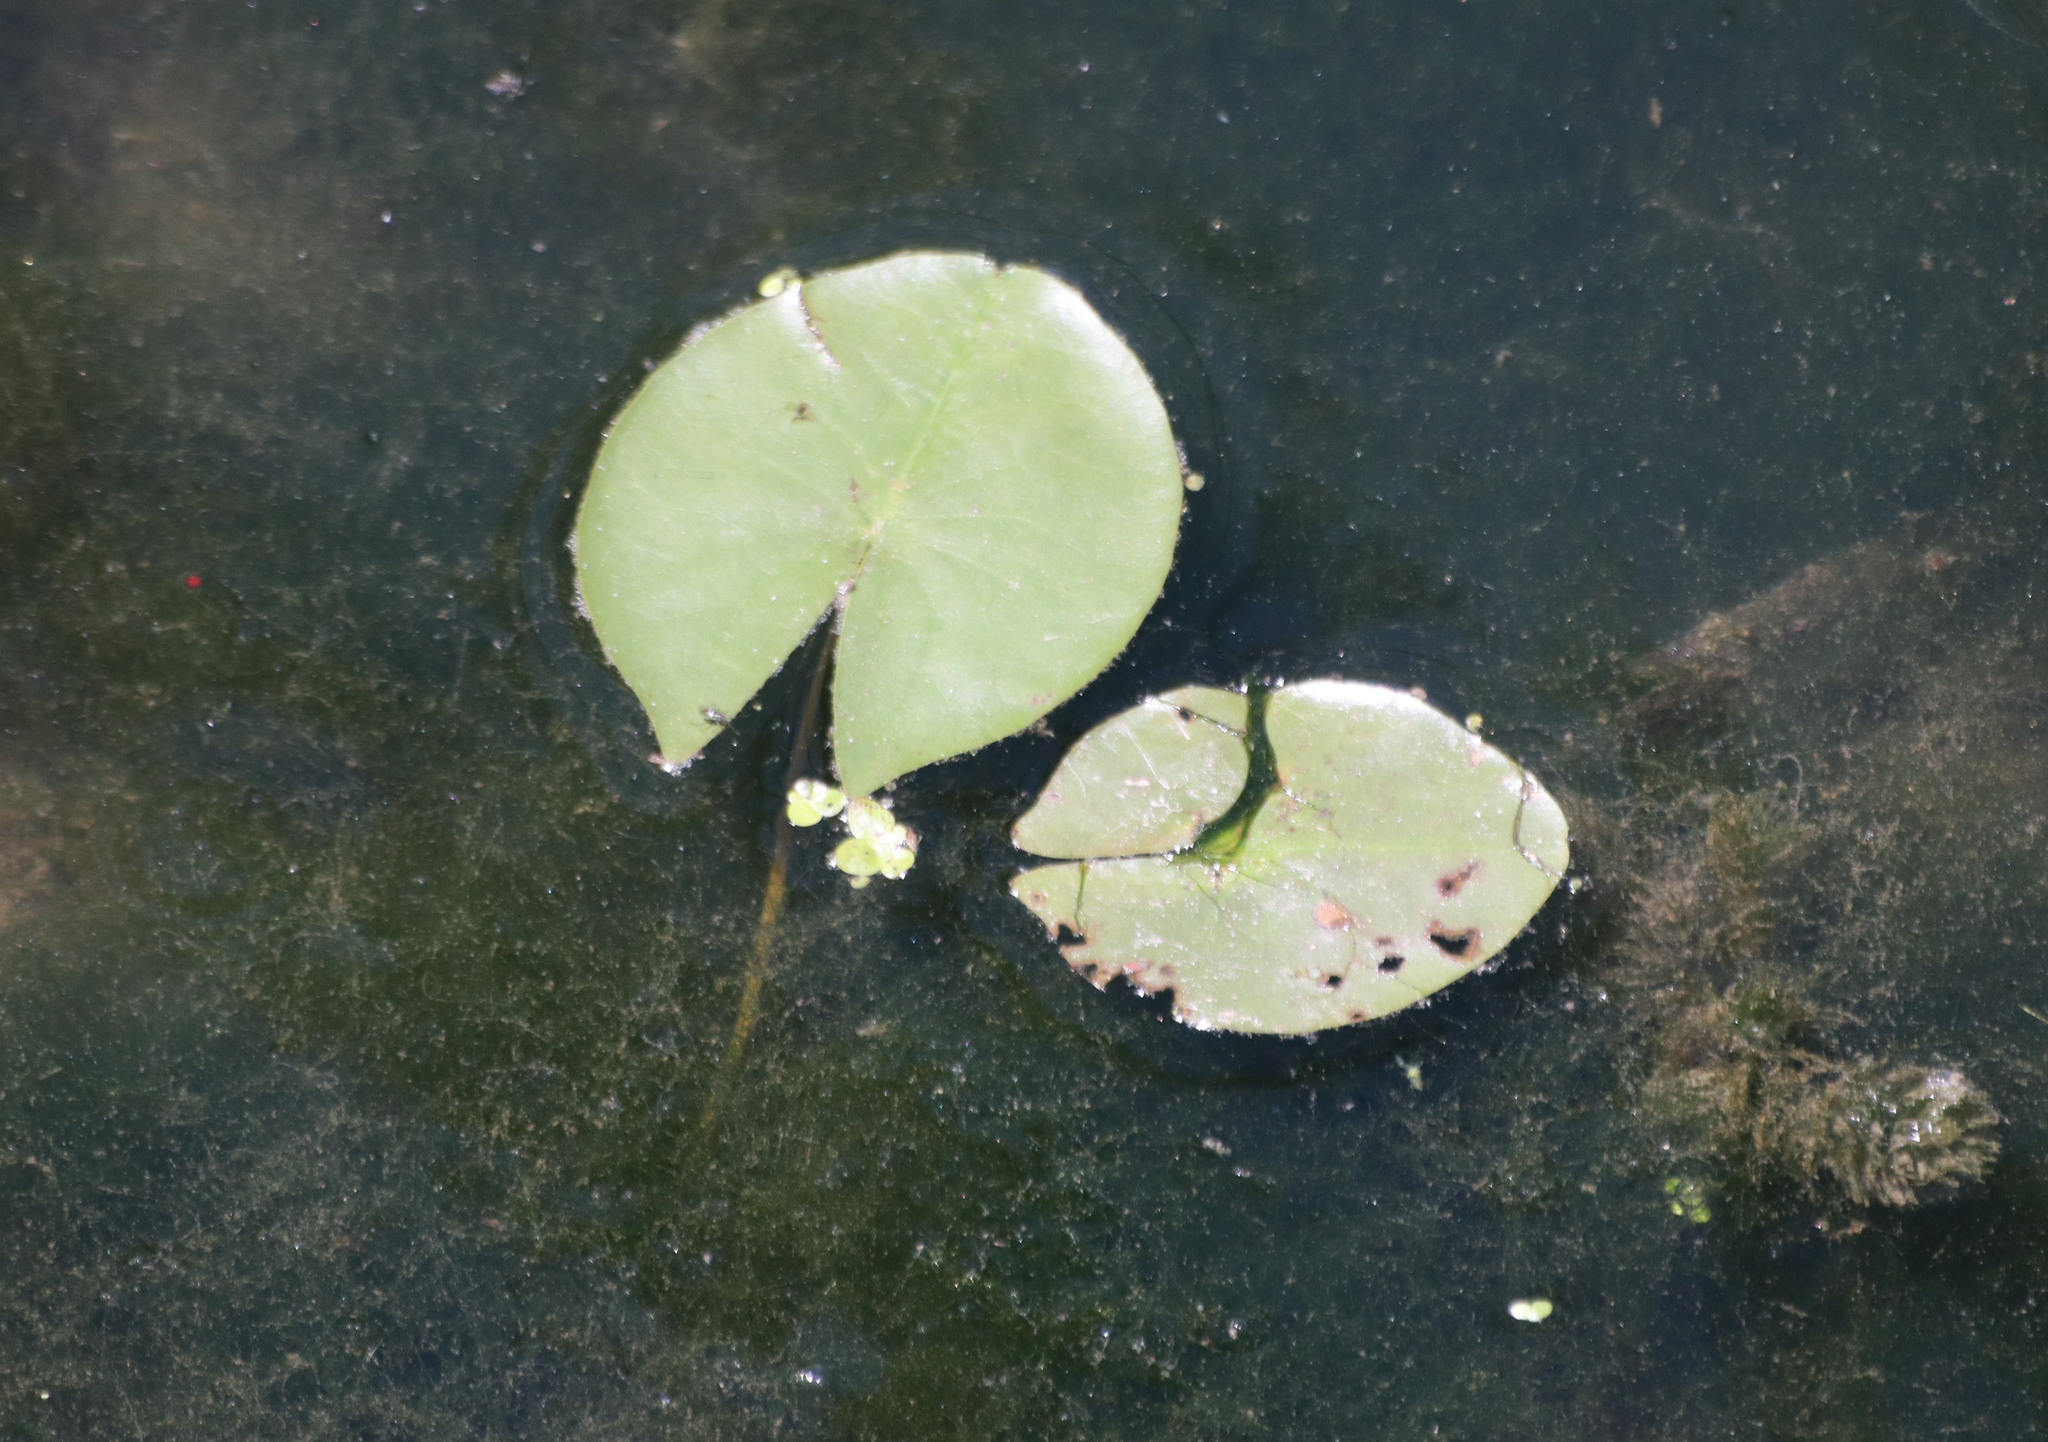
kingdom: Plantae
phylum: Tracheophyta
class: Magnoliopsida
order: Nymphaeales
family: Nymphaeaceae
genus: Nymphaea
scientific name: Nymphaea odorata
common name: Fragrant water-lily
